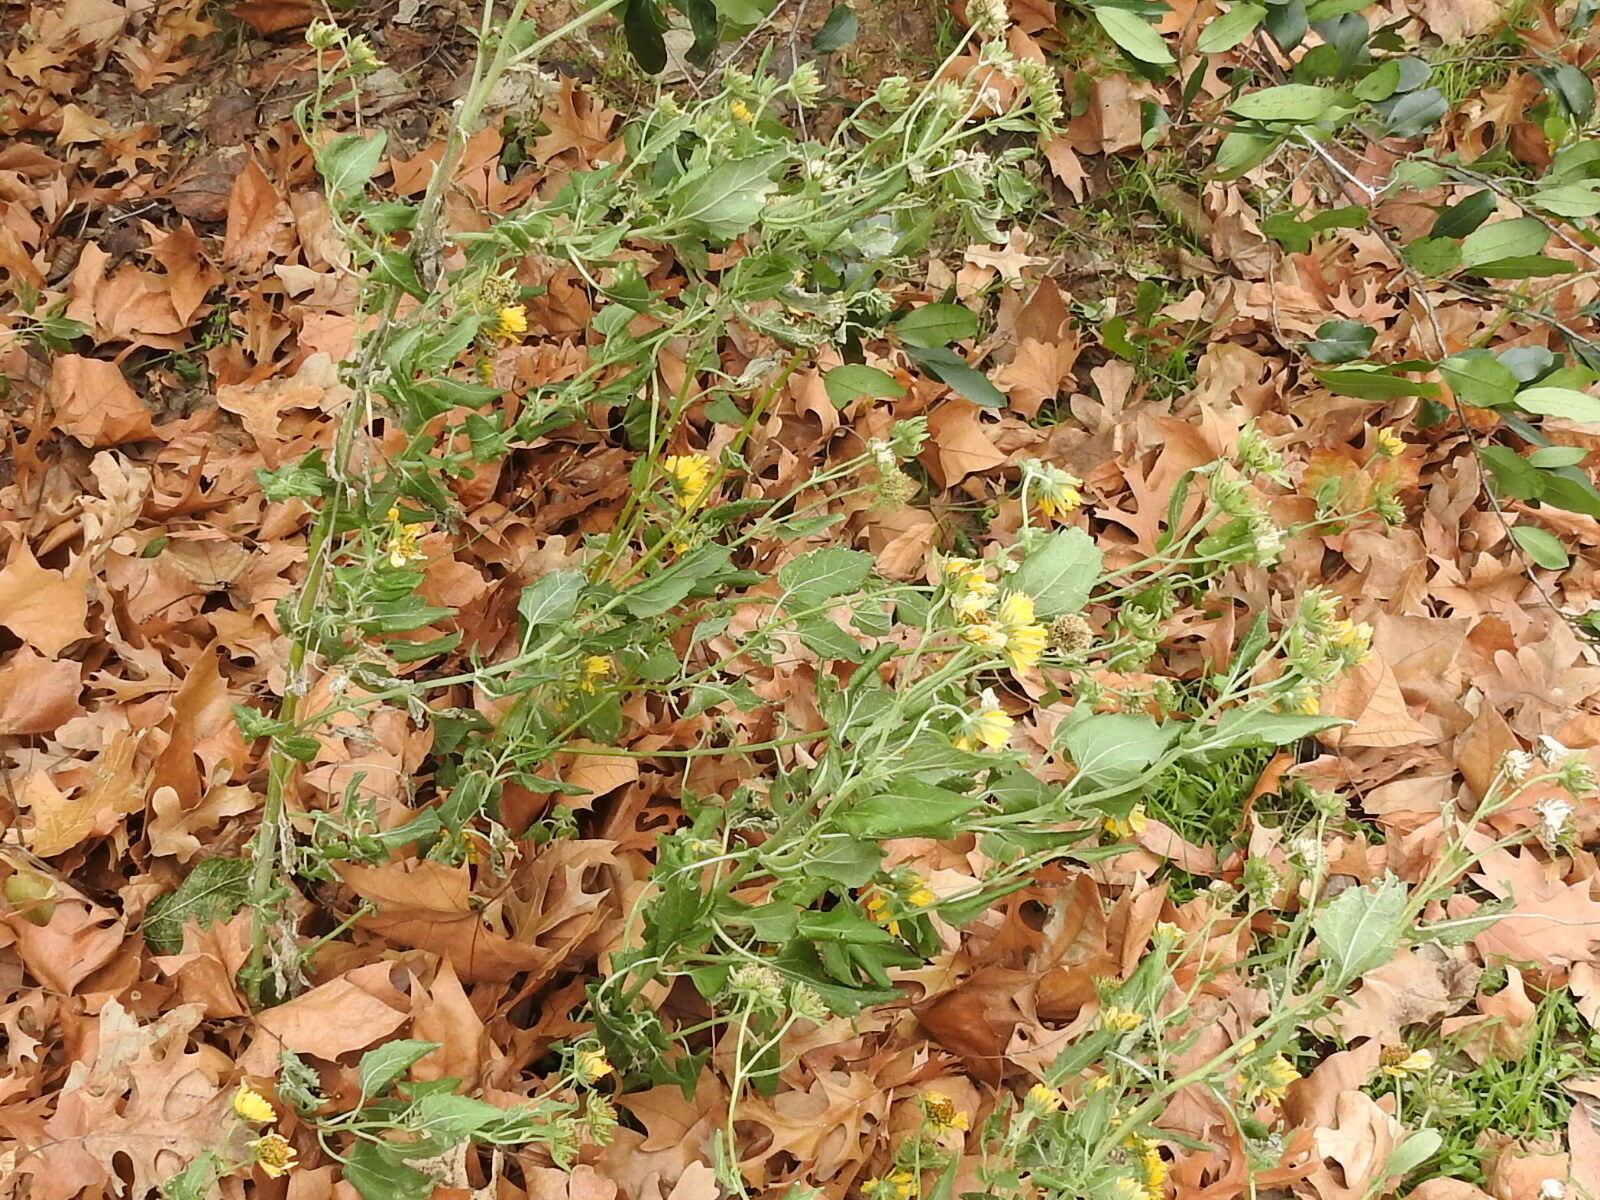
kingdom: Plantae
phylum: Tracheophyta
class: Magnoliopsida
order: Asterales
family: Asteraceae
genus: Verbesina
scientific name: Verbesina encelioides
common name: Golden crownbeard
